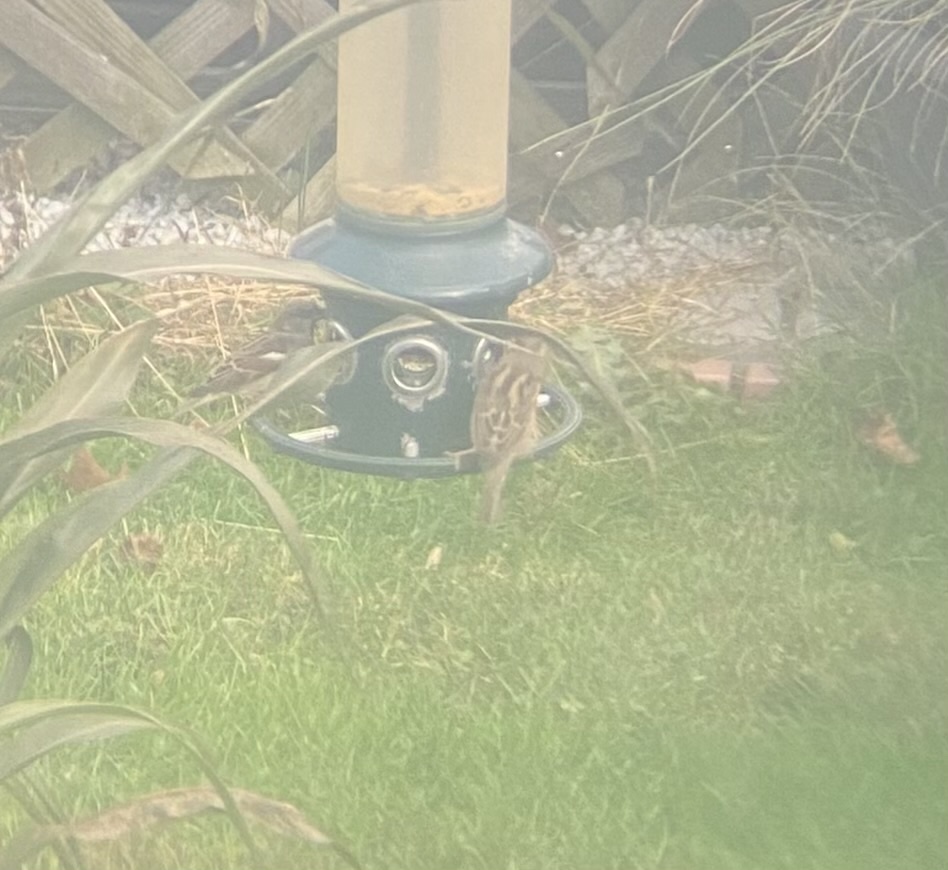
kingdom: Animalia
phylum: Chordata
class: Aves
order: Passeriformes
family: Passeridae
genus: Passer
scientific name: Passer domesticus
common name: House sparrow
